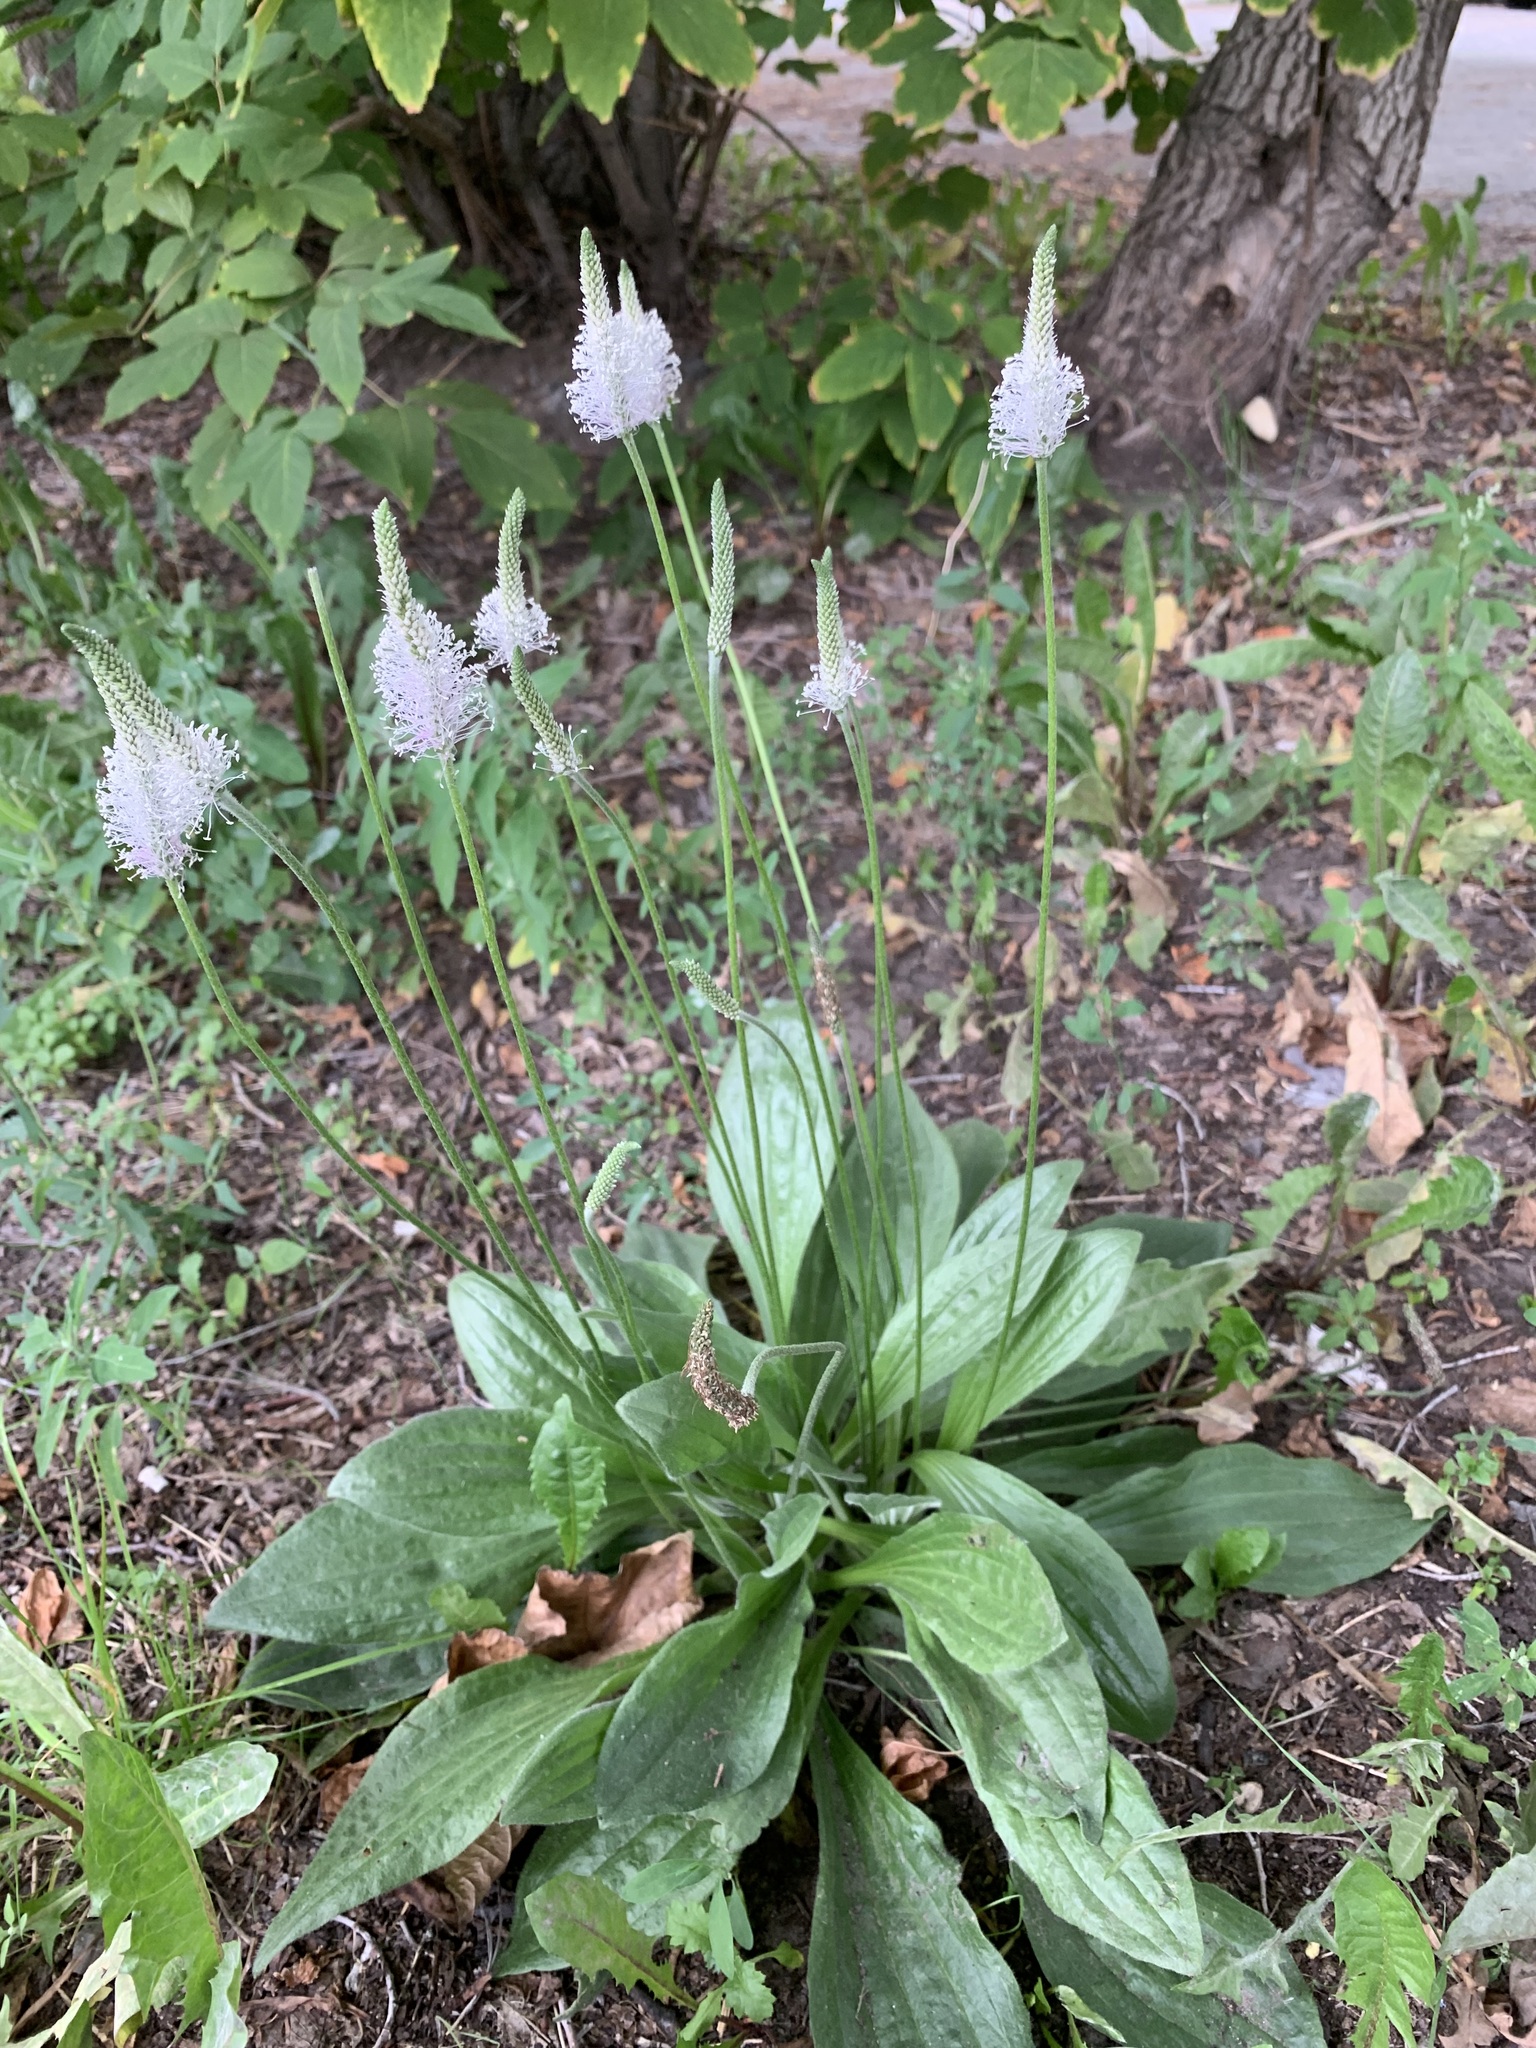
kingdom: Plantae
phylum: Tracheophyta
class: Magnoliopsida
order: Lamiales
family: Plantaginaceae
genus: Plantago
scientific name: Plantago urvillei
